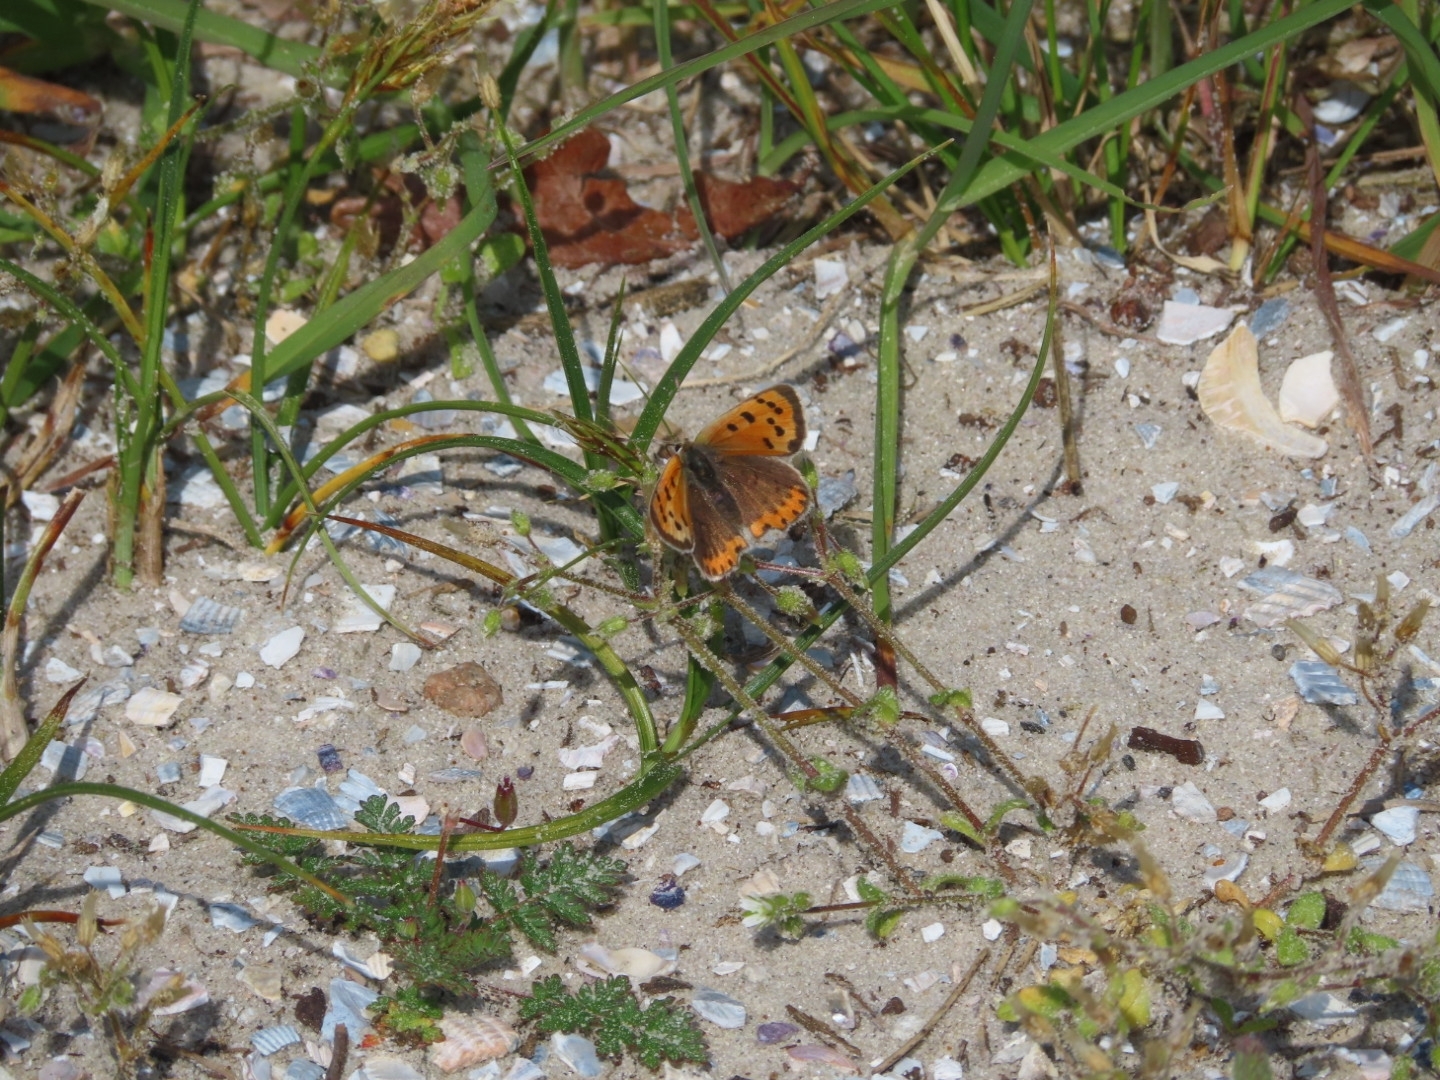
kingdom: Animalia
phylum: Arthropoda
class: Insecta
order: Lepidoptera
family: Lycaenidae
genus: Lycaena
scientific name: Lycaena phlaeas
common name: Small copper
